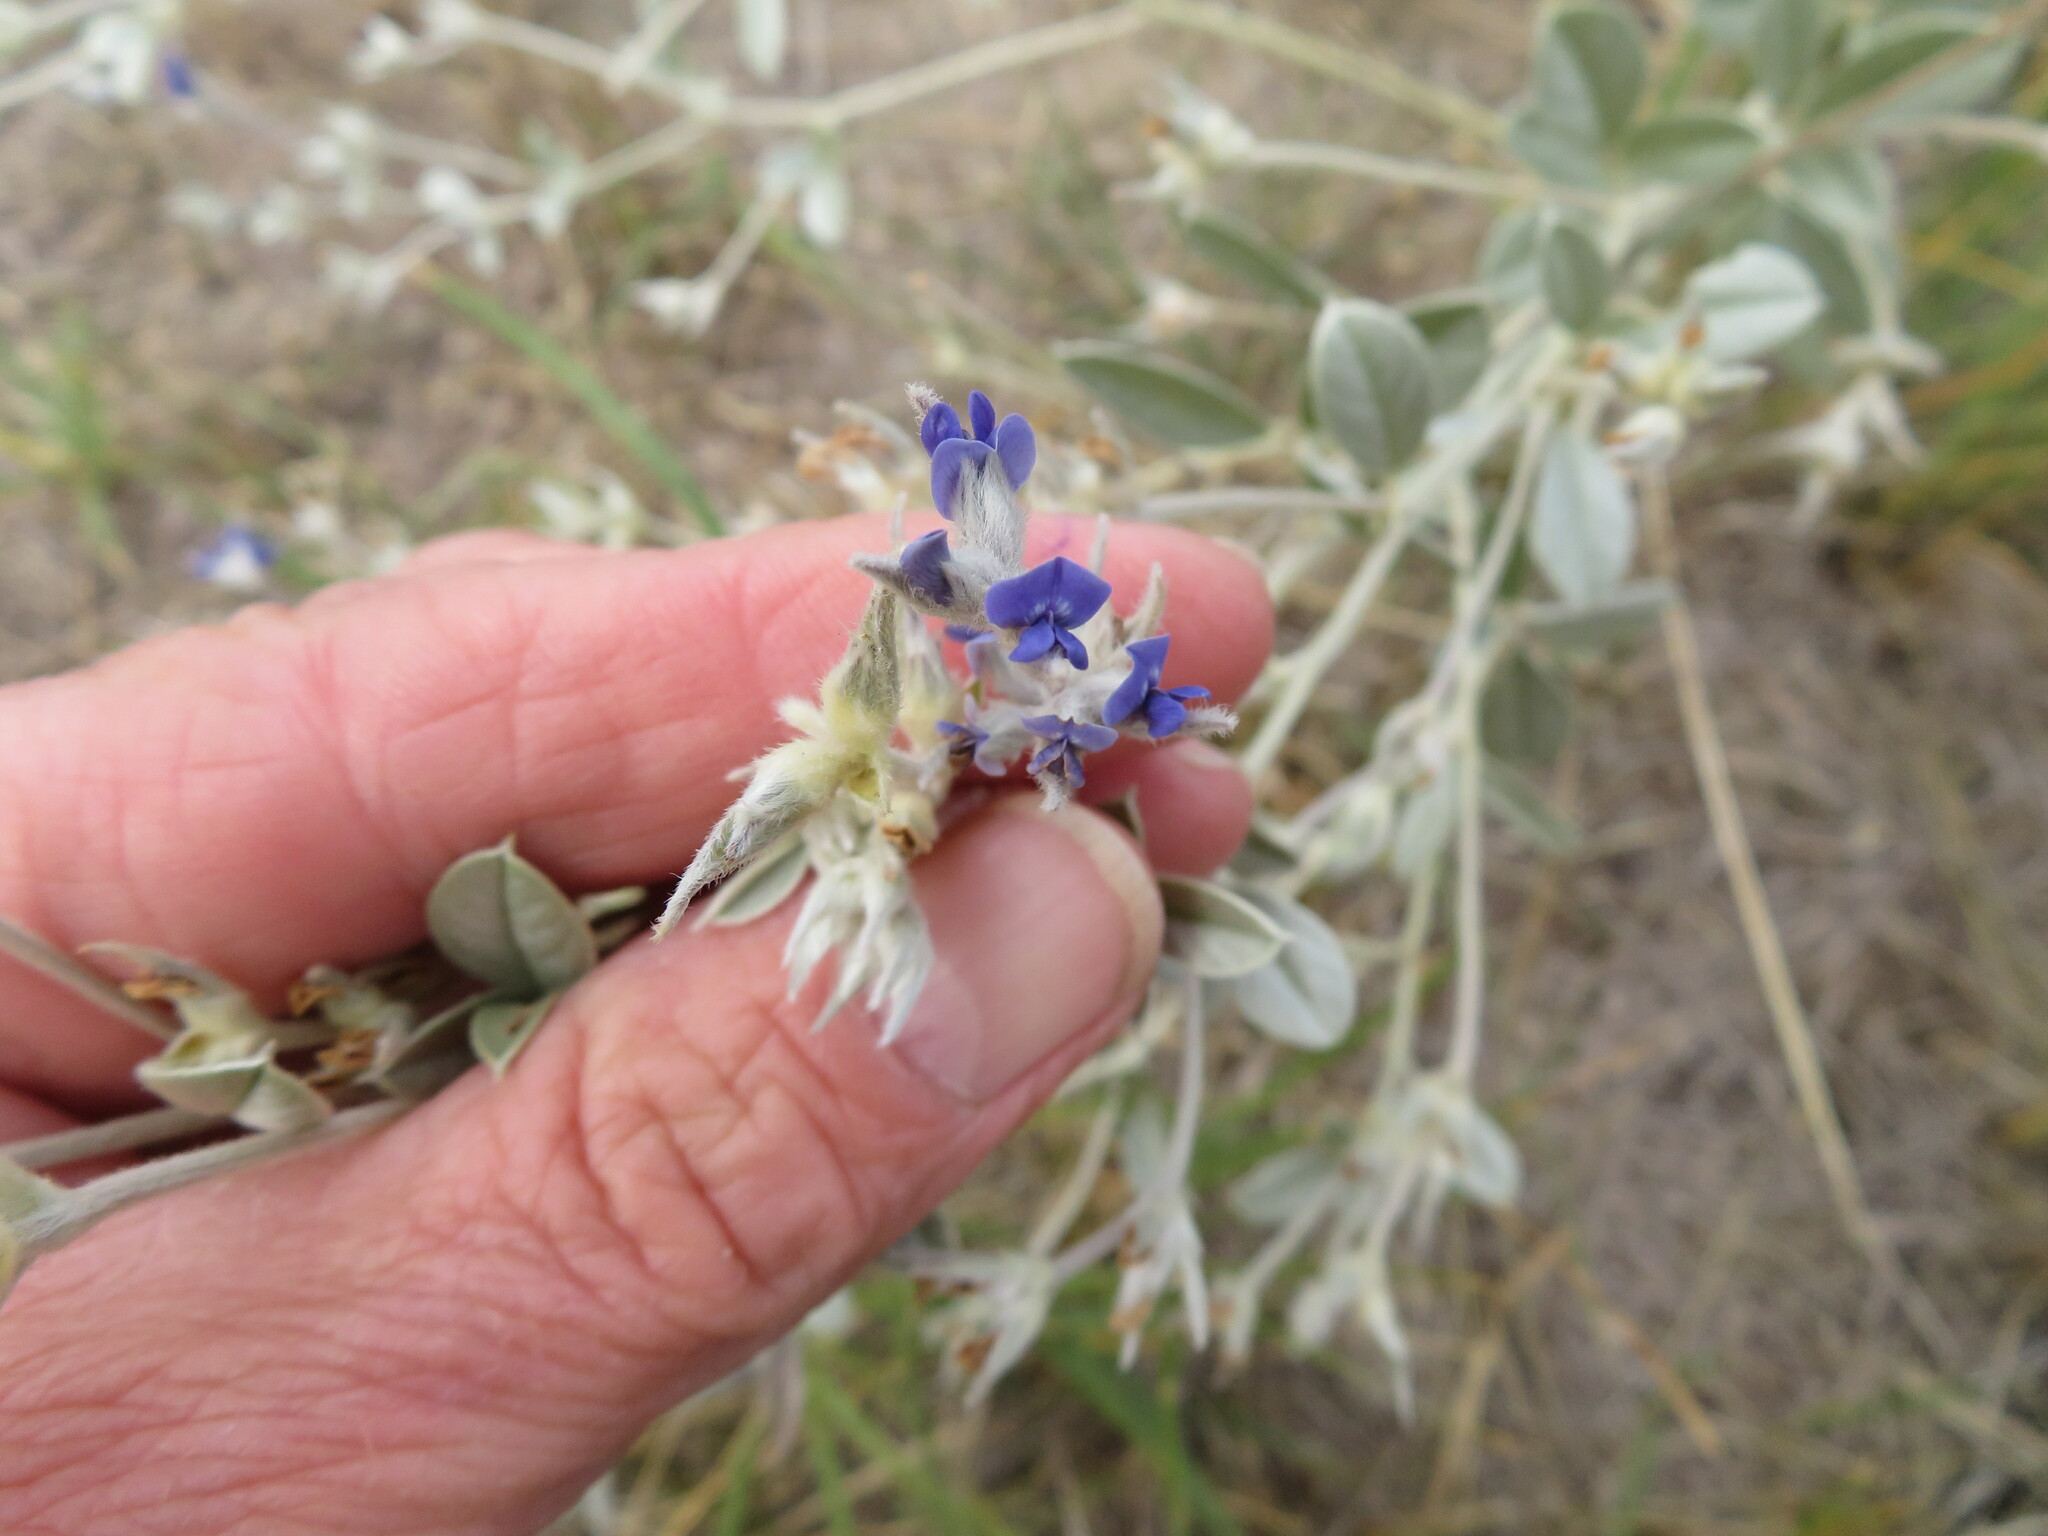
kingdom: Plantae
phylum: Tracheophyta
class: Magnoliopsida
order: Fabales
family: Fabaceae
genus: Pediomelum
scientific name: Pediomelum argophyllum
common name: Silver-leaved indian breadroot
